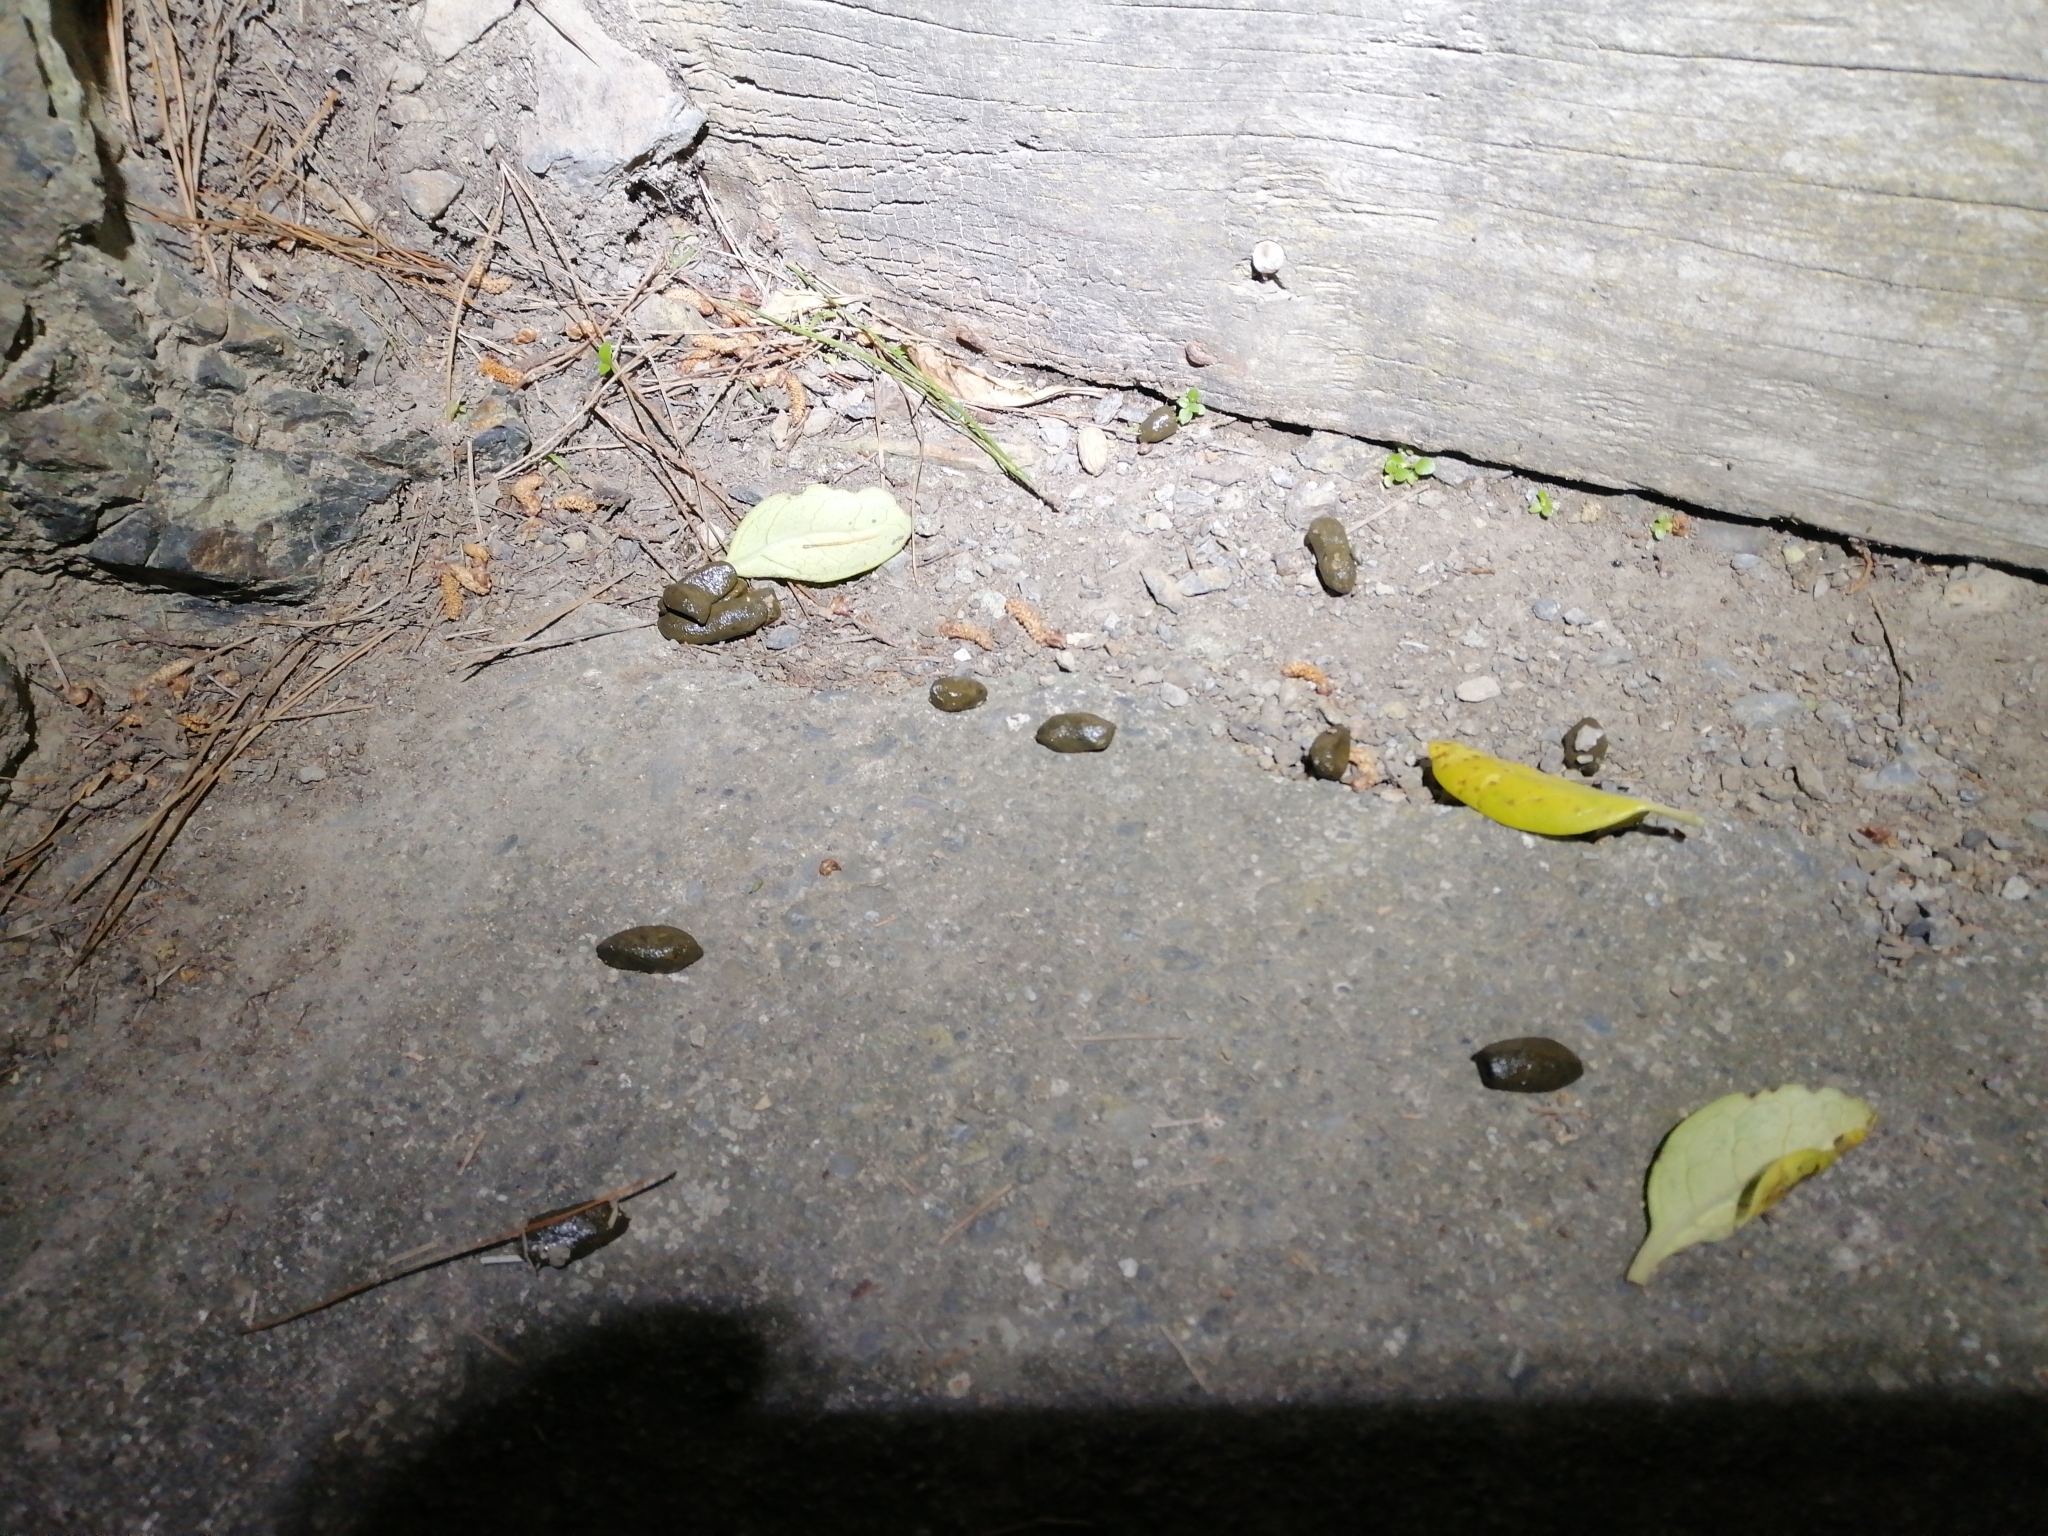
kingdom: Animalia
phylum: Chordata
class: Mammalia
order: Diprotodontia
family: Phalangeridae
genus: Trichosurus
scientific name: Trichosurus vulpecula
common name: Common brushtail
